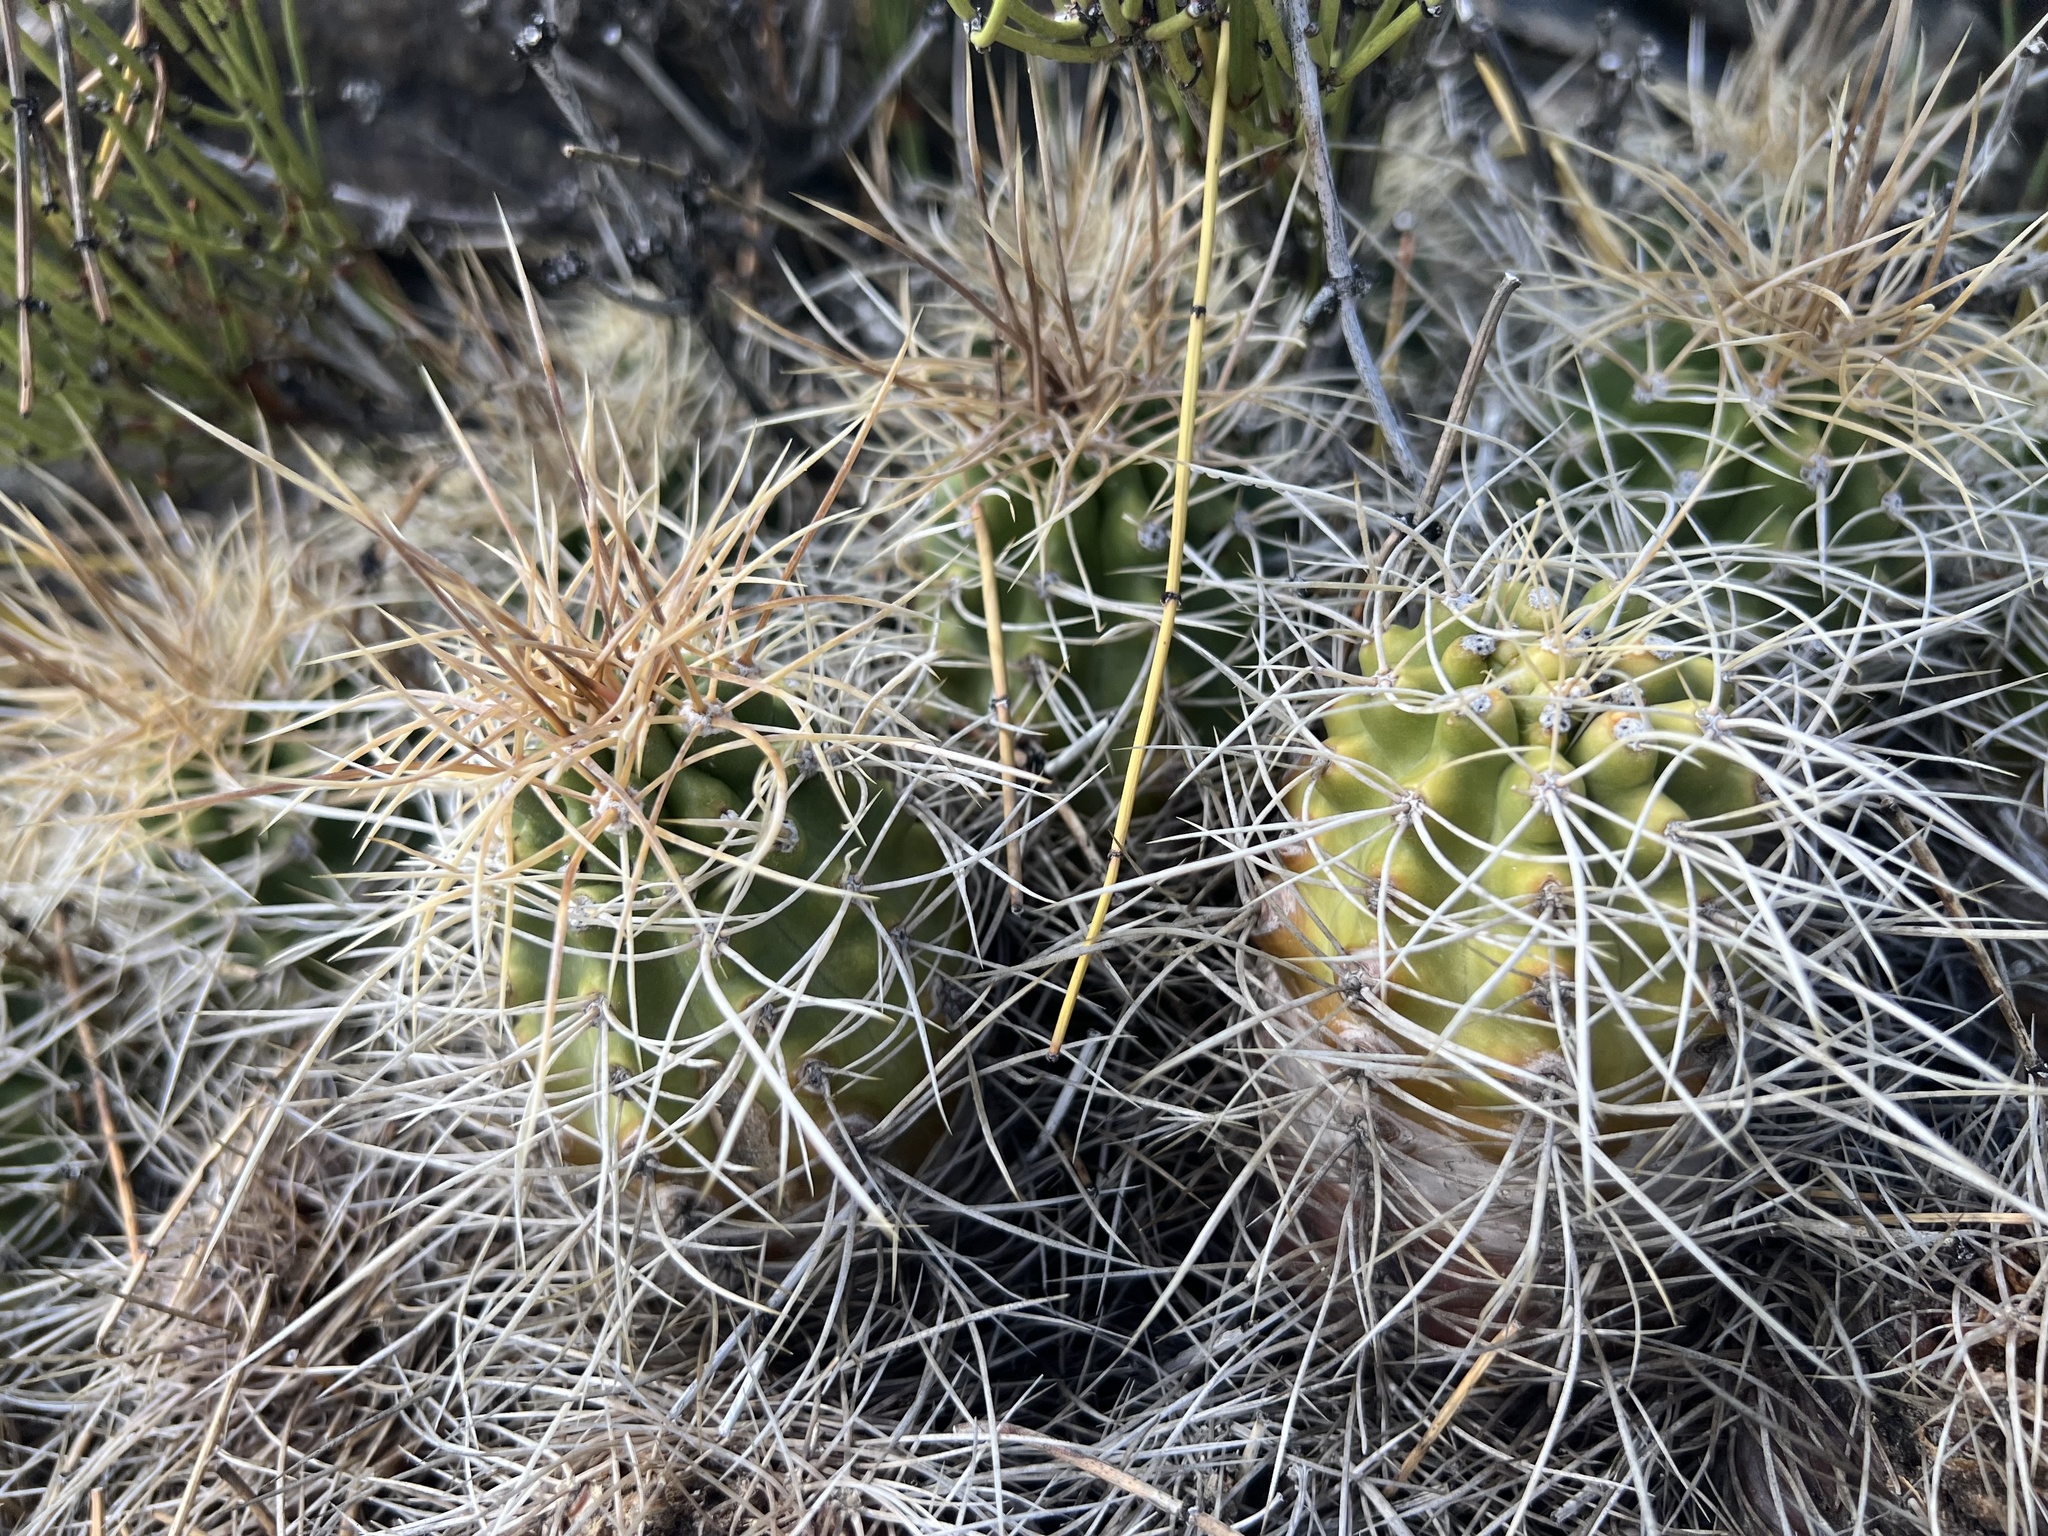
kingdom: Plantae
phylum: Tracheophyta
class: Magnoliopsida
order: Caryophyllales
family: Cactaceae
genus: Echinocereus
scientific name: Echinocereus triglochidiatus
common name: Claretcup hedgehog
